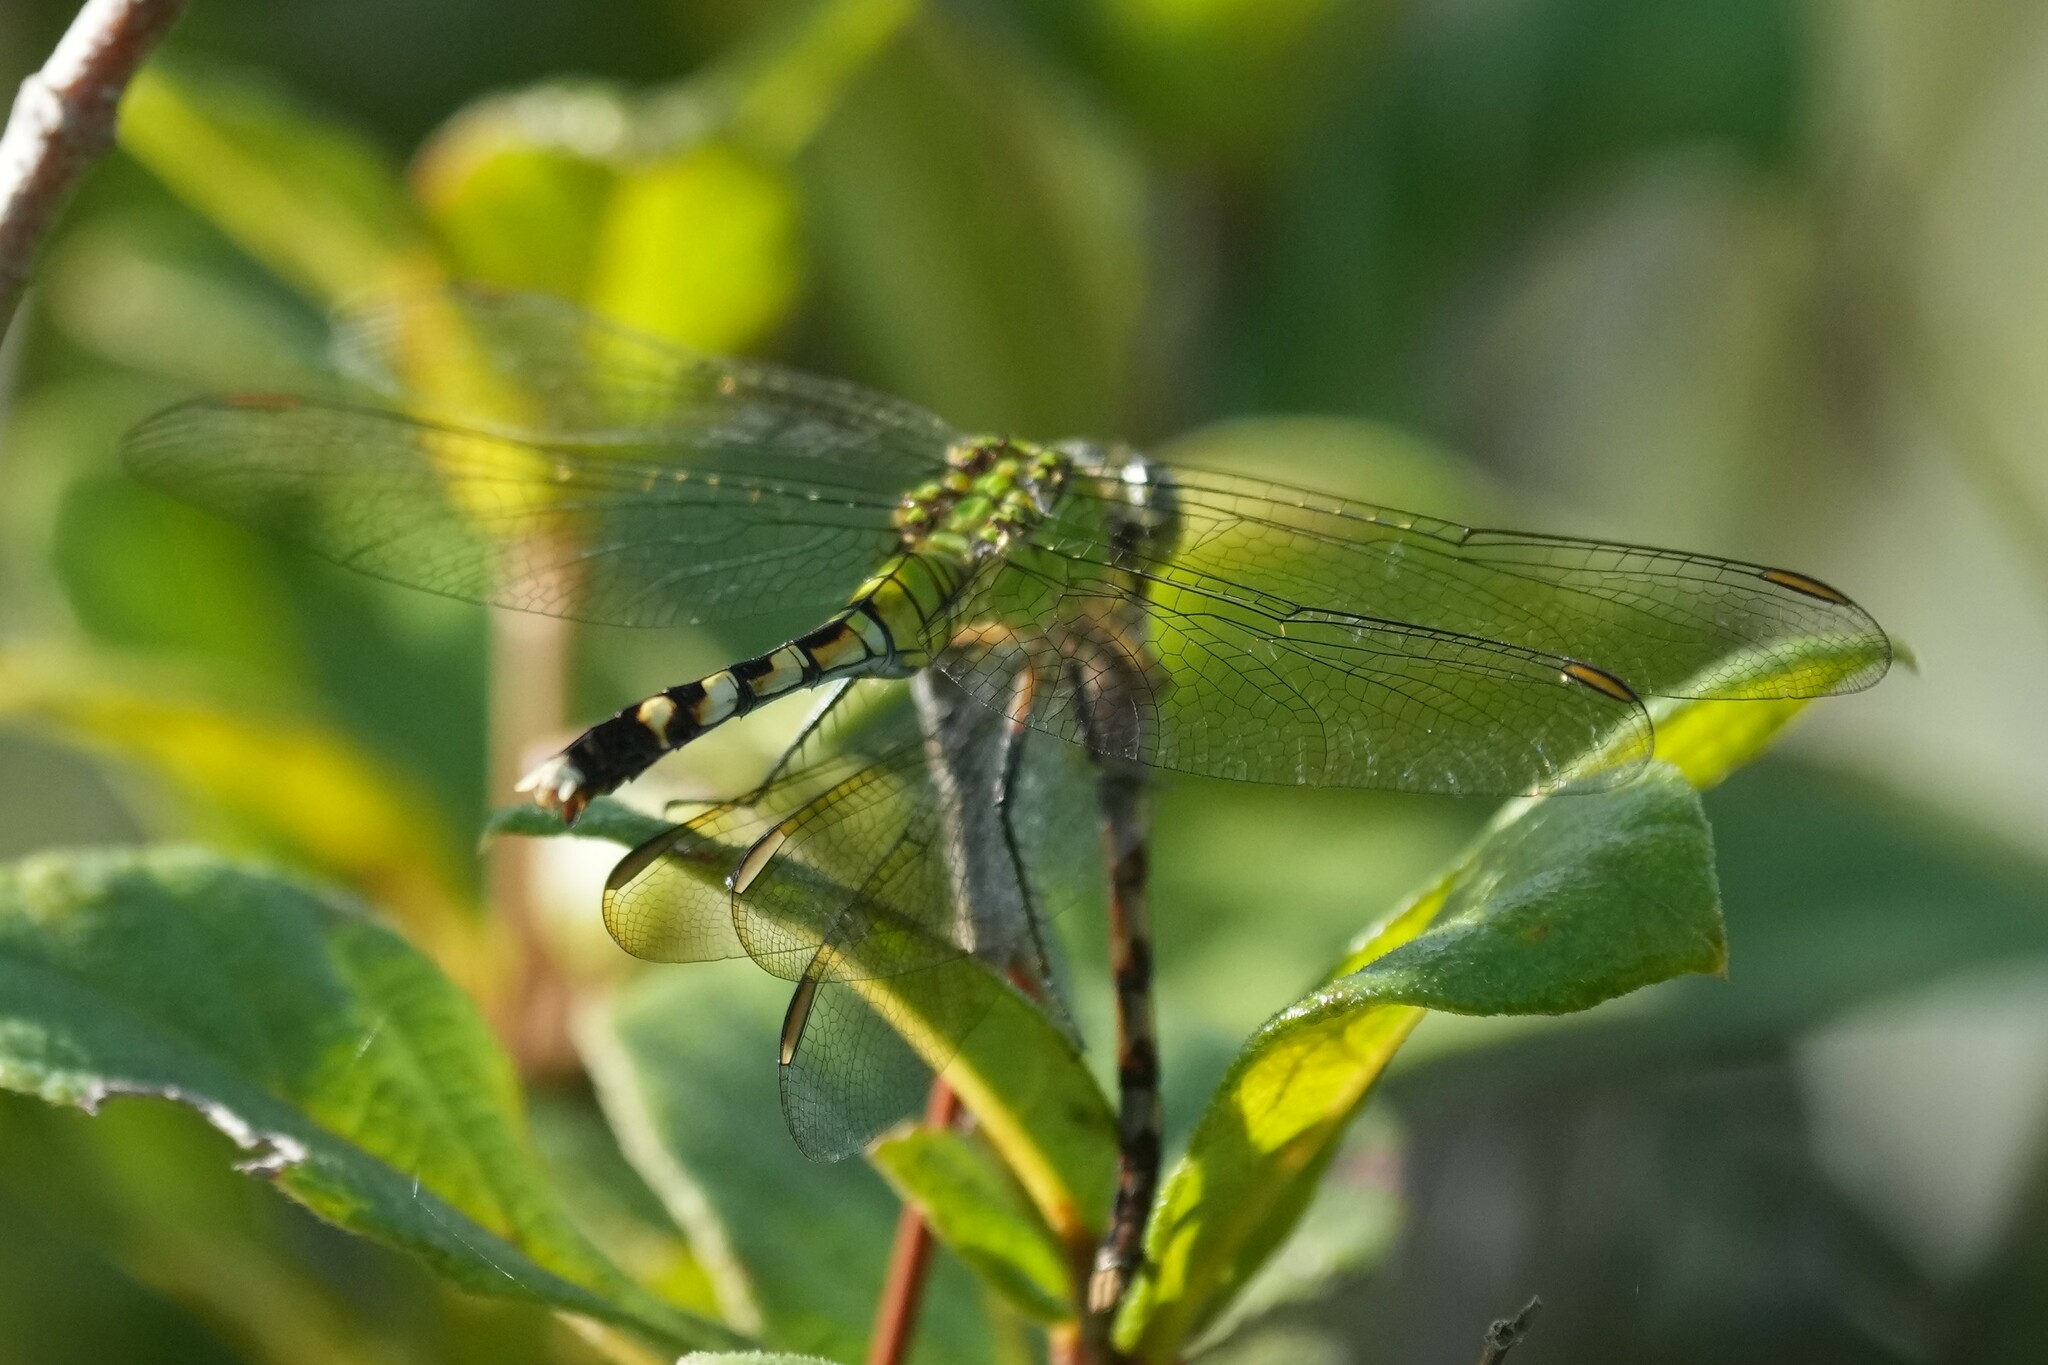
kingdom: Animalia
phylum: Arthropoda
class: Insecta
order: Odonata
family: Libellulidae
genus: Erythemis
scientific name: Erythemis simplicicollis
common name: Eastern pondhawk
